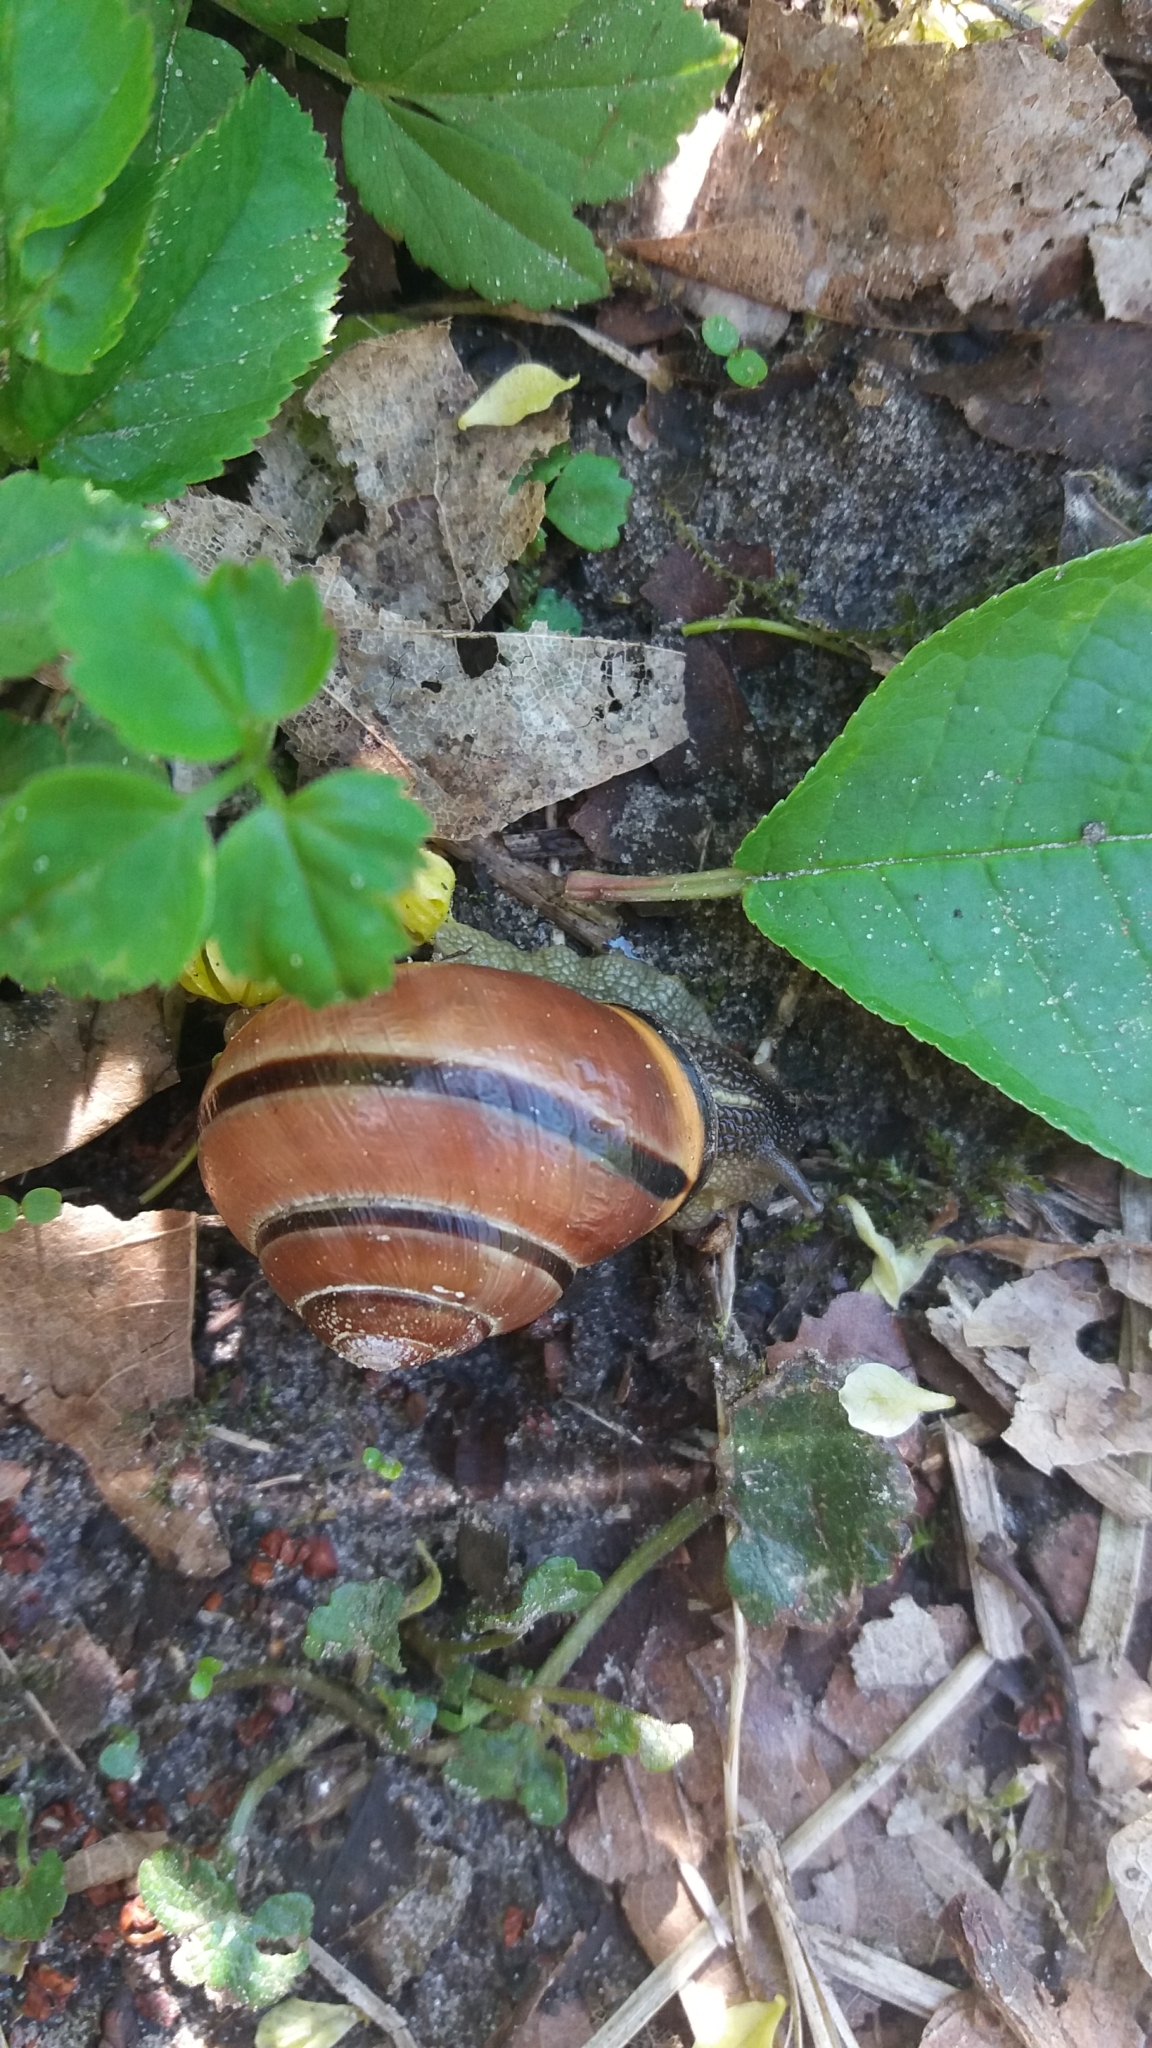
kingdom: Animalia
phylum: Mollusca
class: Gastropoda
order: Stylommatophora
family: Helicidae
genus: Cepaea
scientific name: Cepaea nemoralis
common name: Grovesnail
